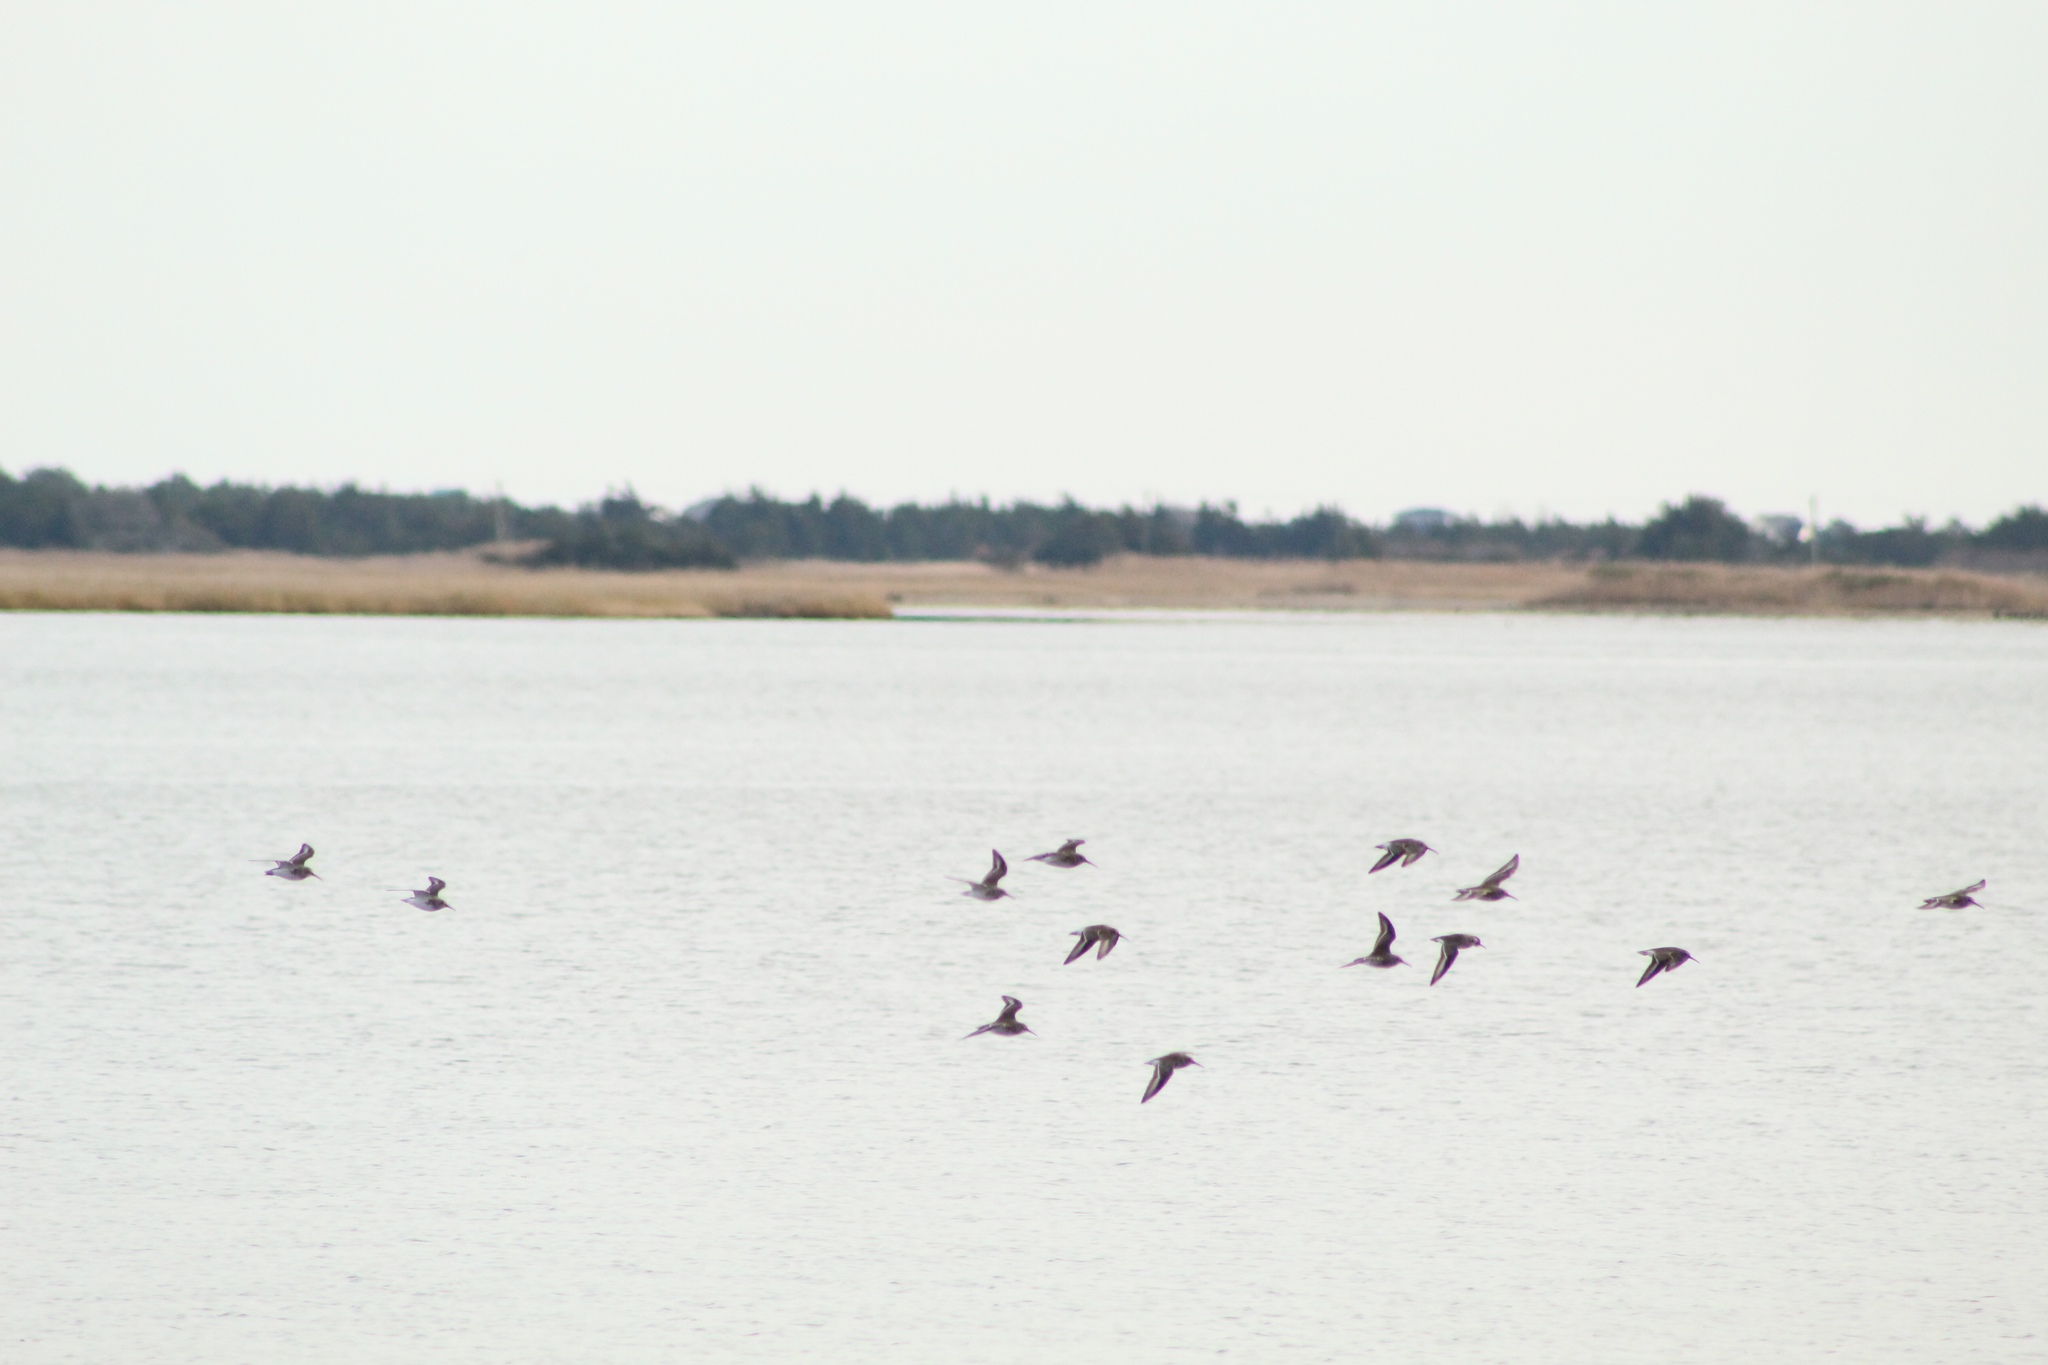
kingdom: Animalia
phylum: Chordata
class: Aves
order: Charadriiformes
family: Scolopacidae
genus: Calidris
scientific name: Calidris alpina
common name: Dunlin
